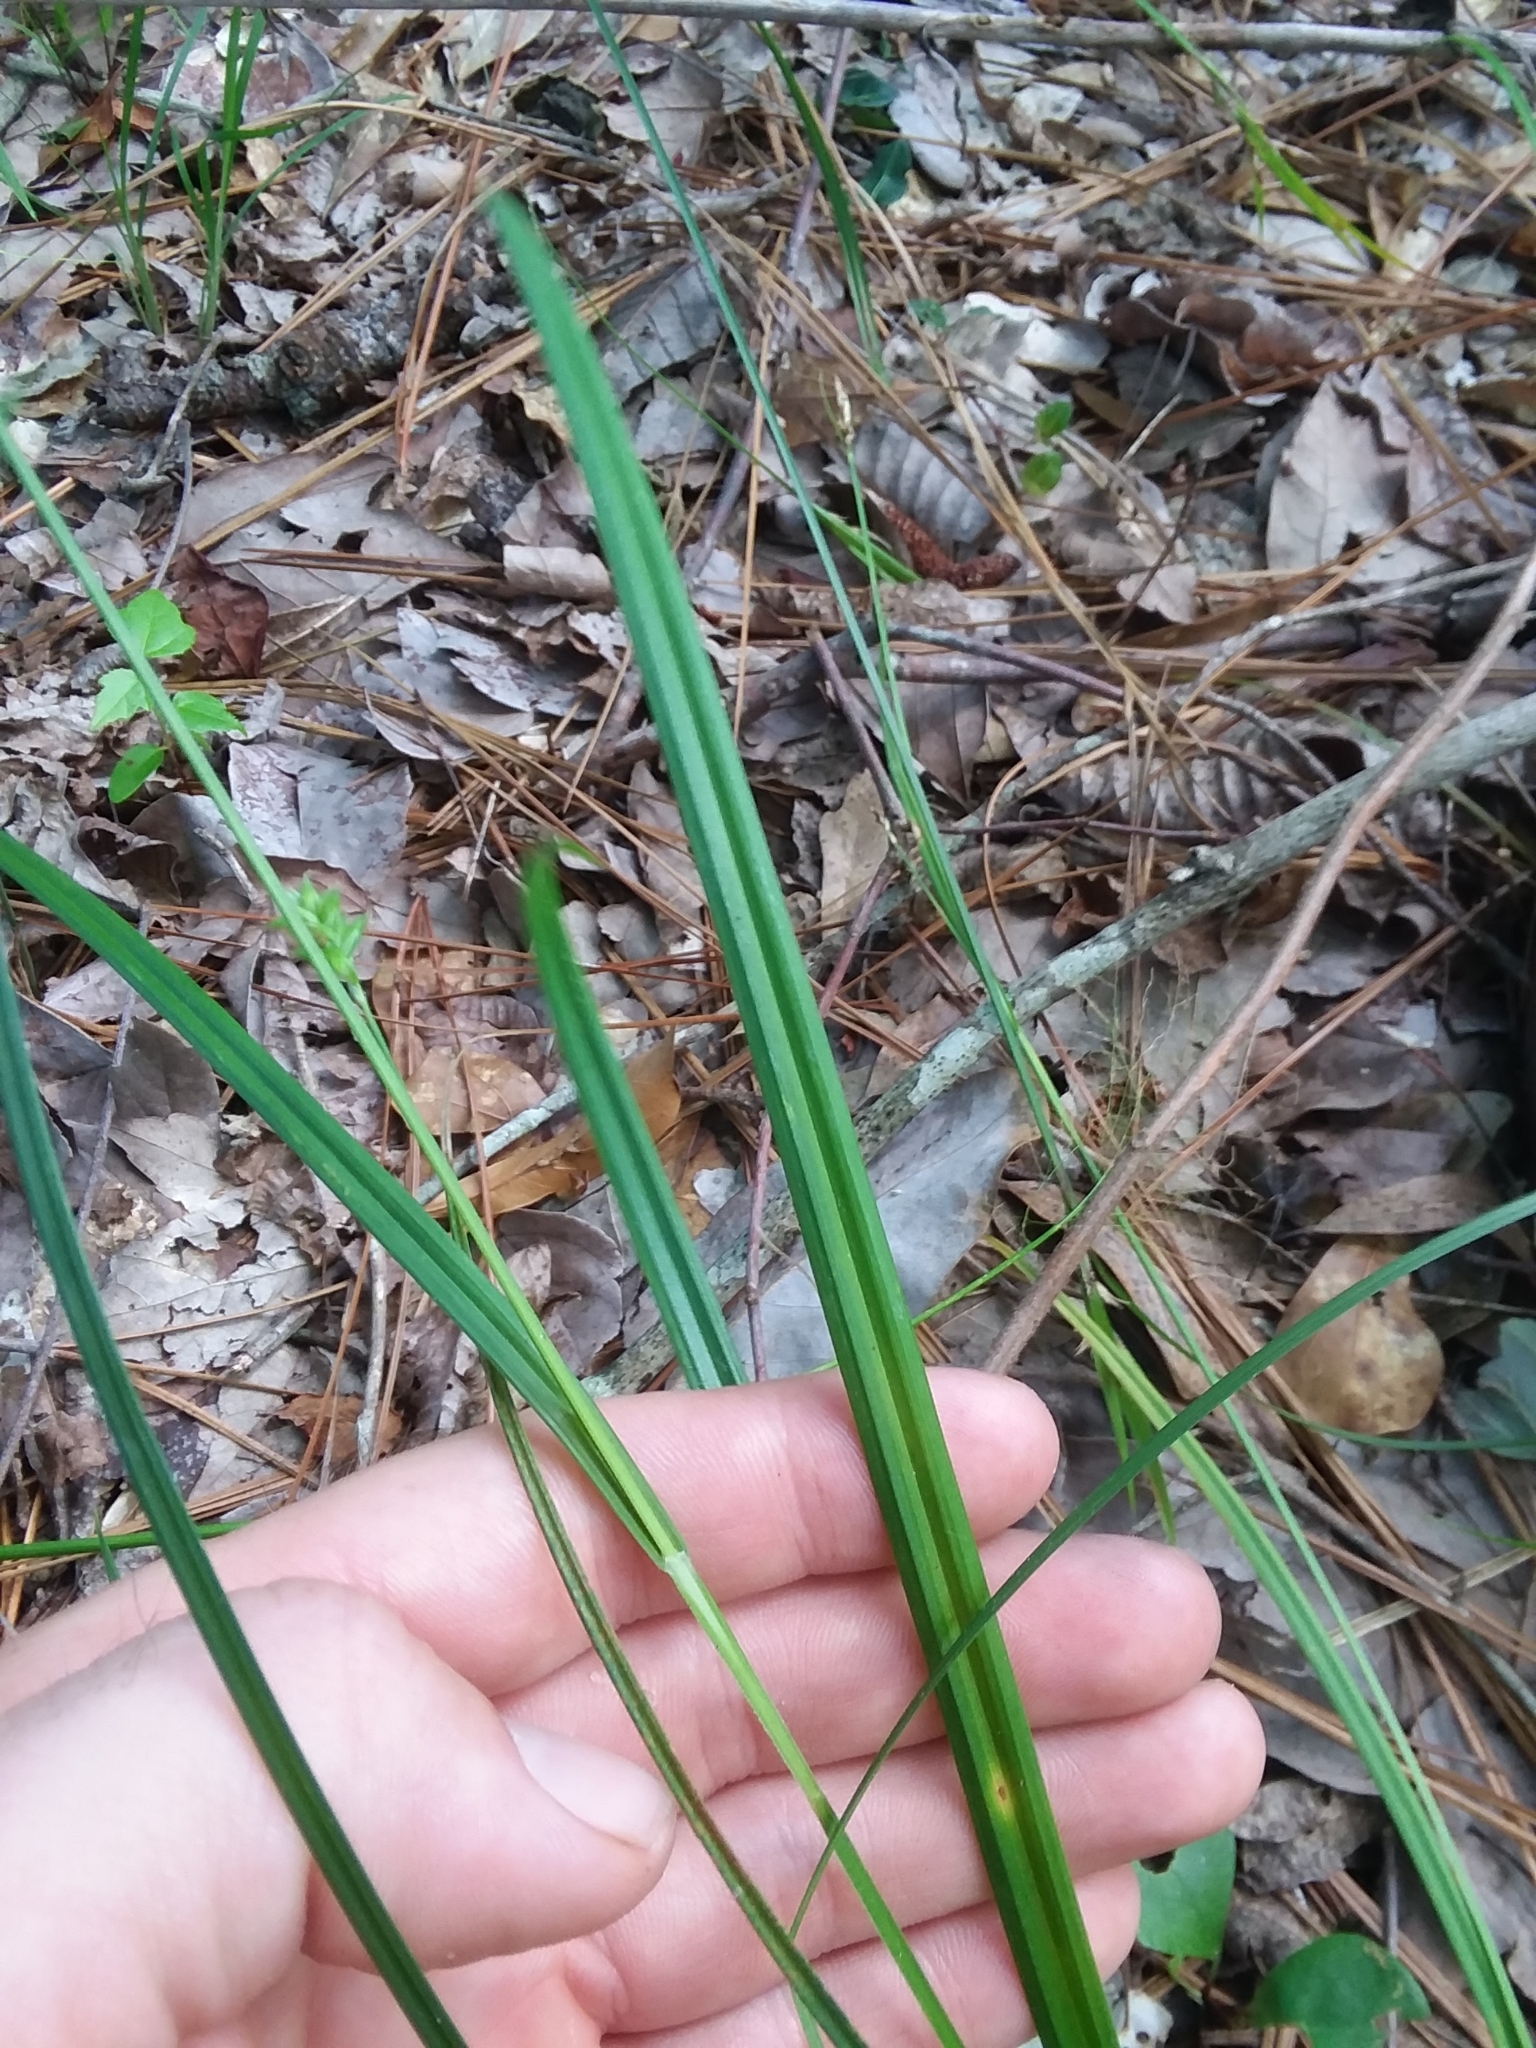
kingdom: Plantae
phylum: Tracheophyta
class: Liliopsida
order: Poales
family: Cyperaceae
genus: Carex
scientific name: Carex crebriflora
